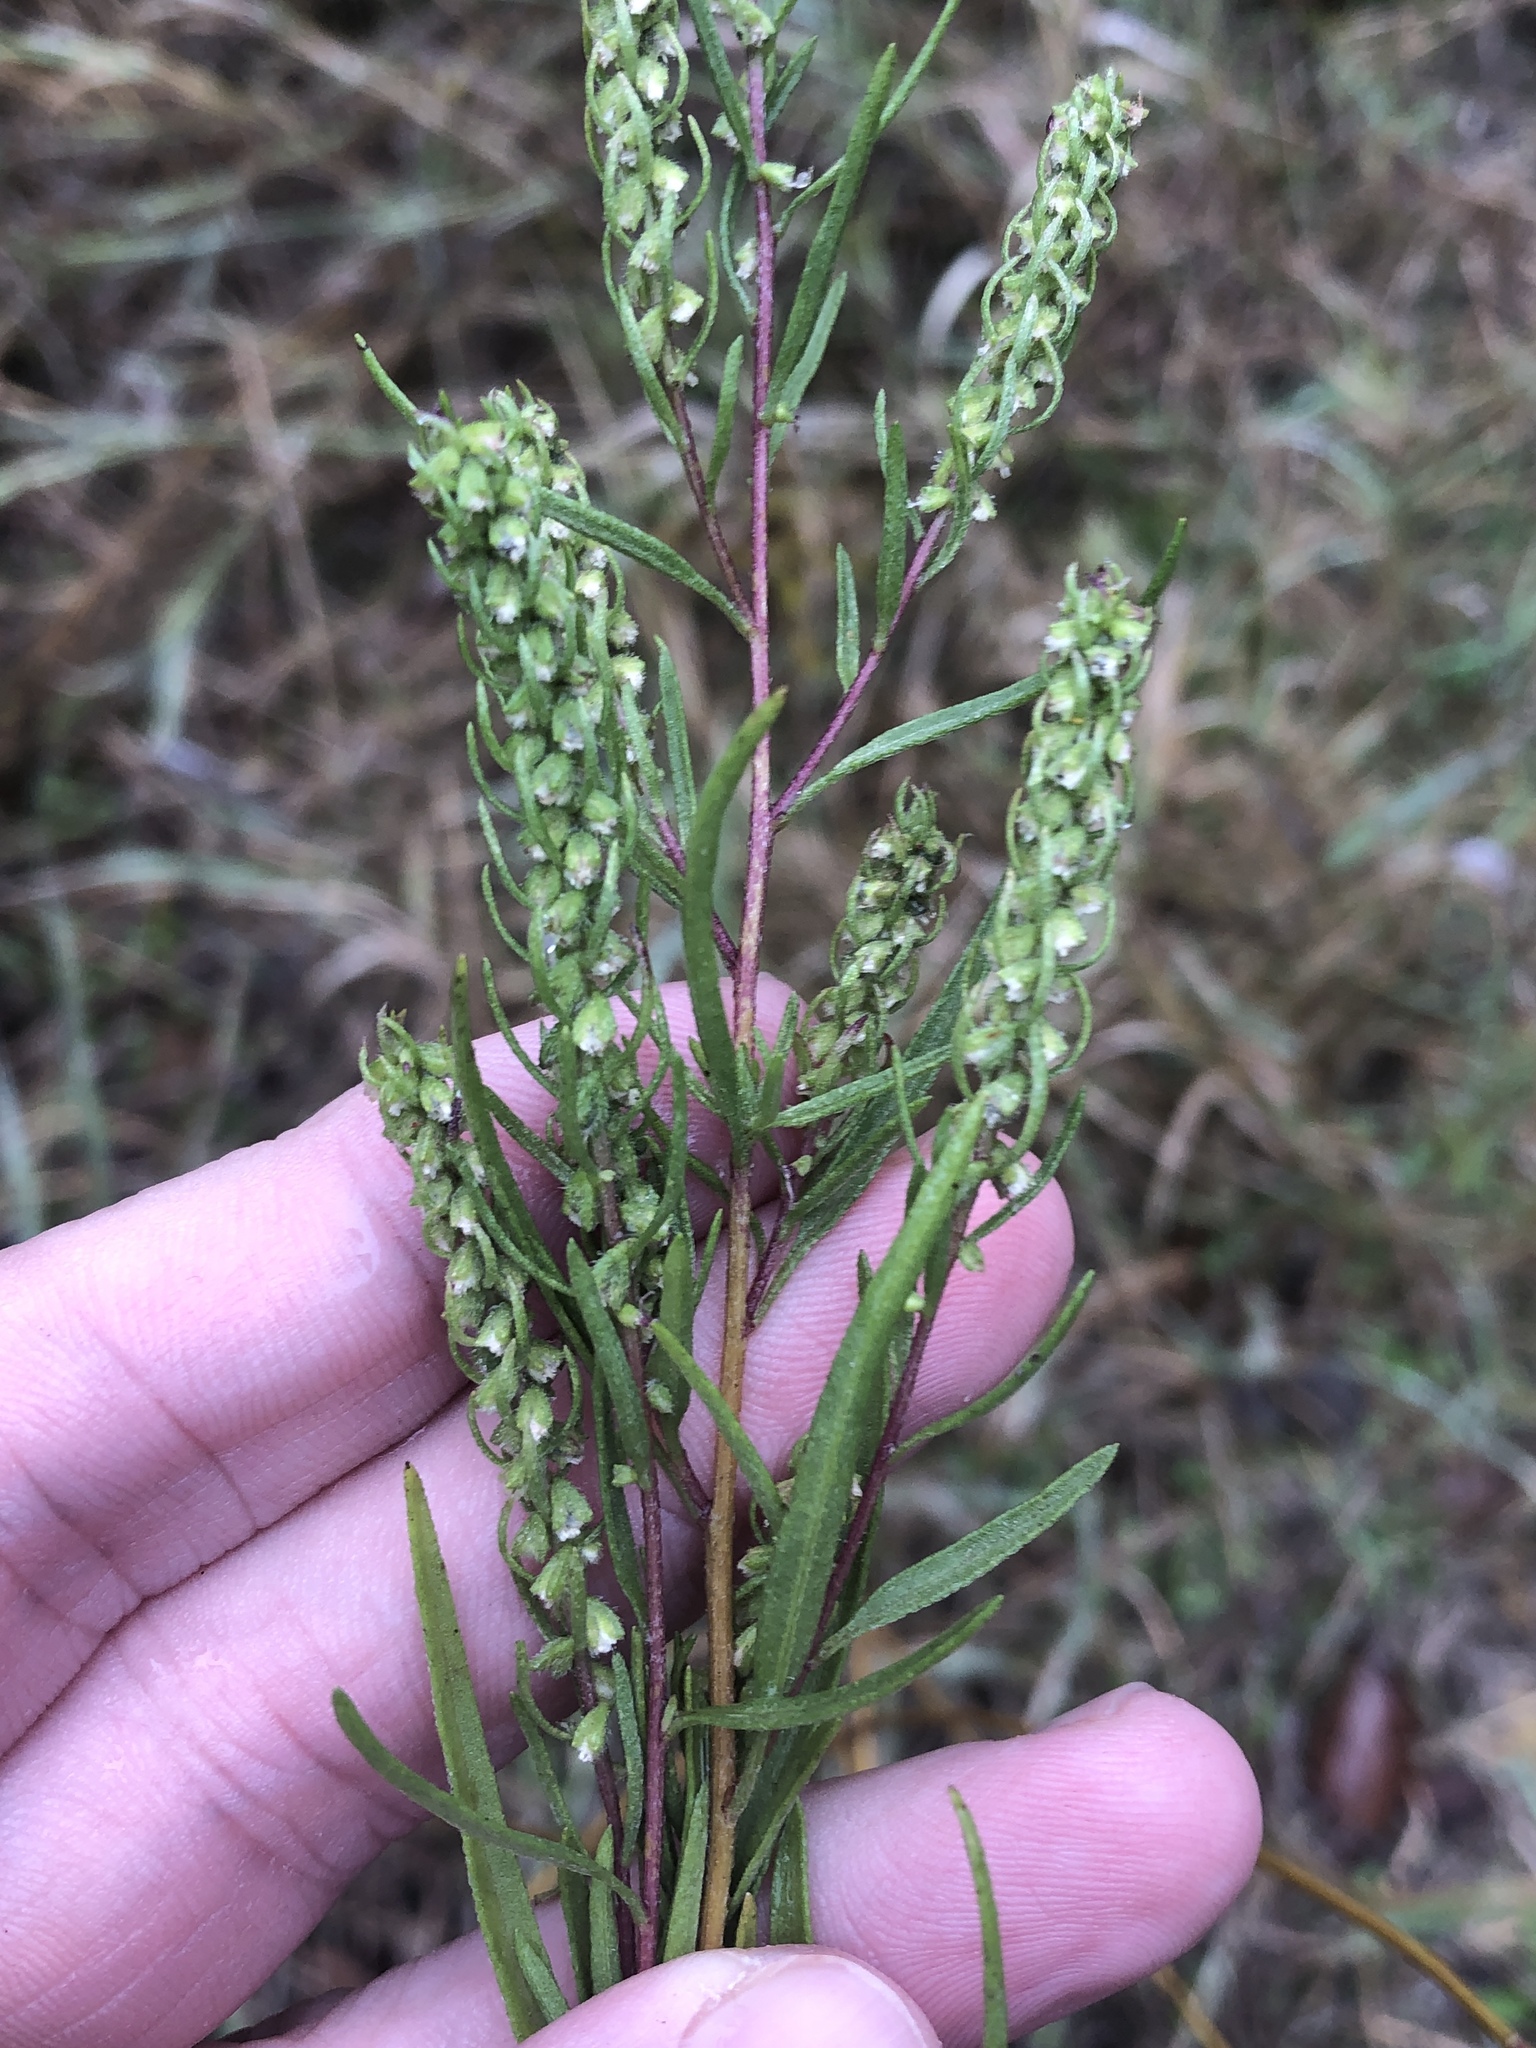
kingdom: Plantae
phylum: Tracheophyta
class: Magnoliopsida
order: Asterales
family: Asteraceae
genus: Iva
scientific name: Iva asperifolia
